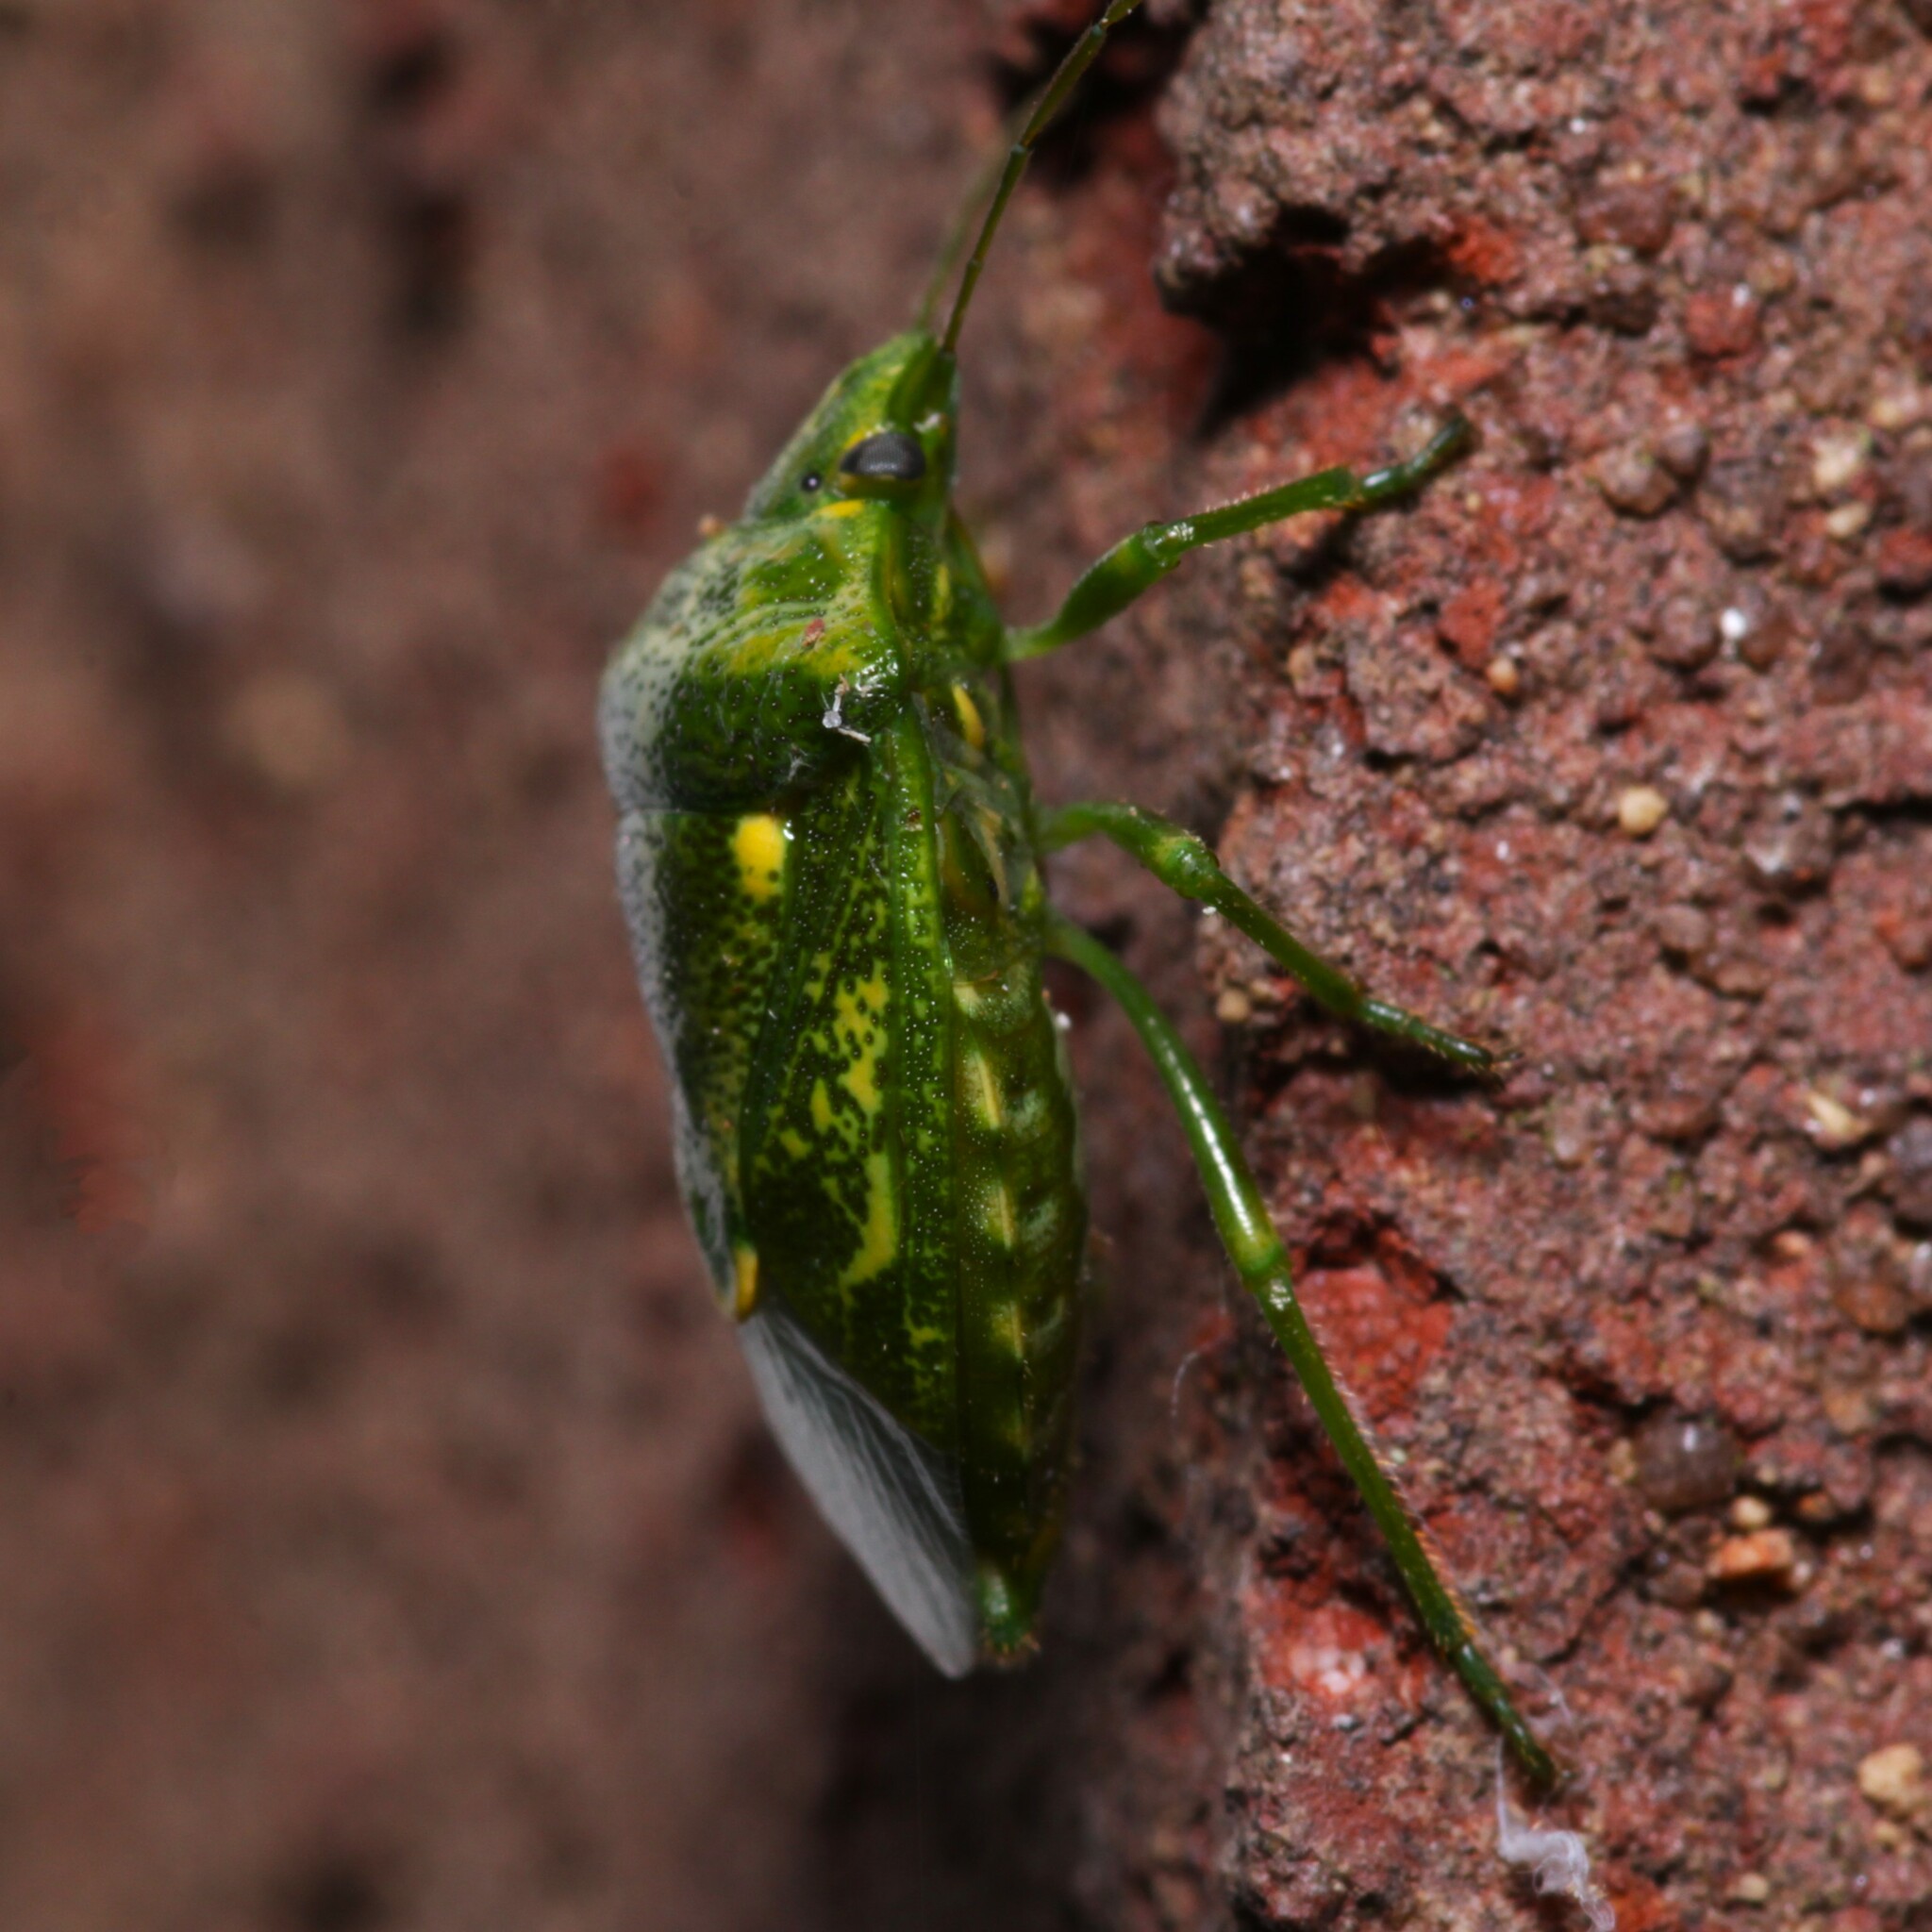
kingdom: Animalia
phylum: Arthropoda
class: Insecta
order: Hemiptera
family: Pentatomidae
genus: Banasa
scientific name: Banasa euchlora
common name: Cedar berry bug
